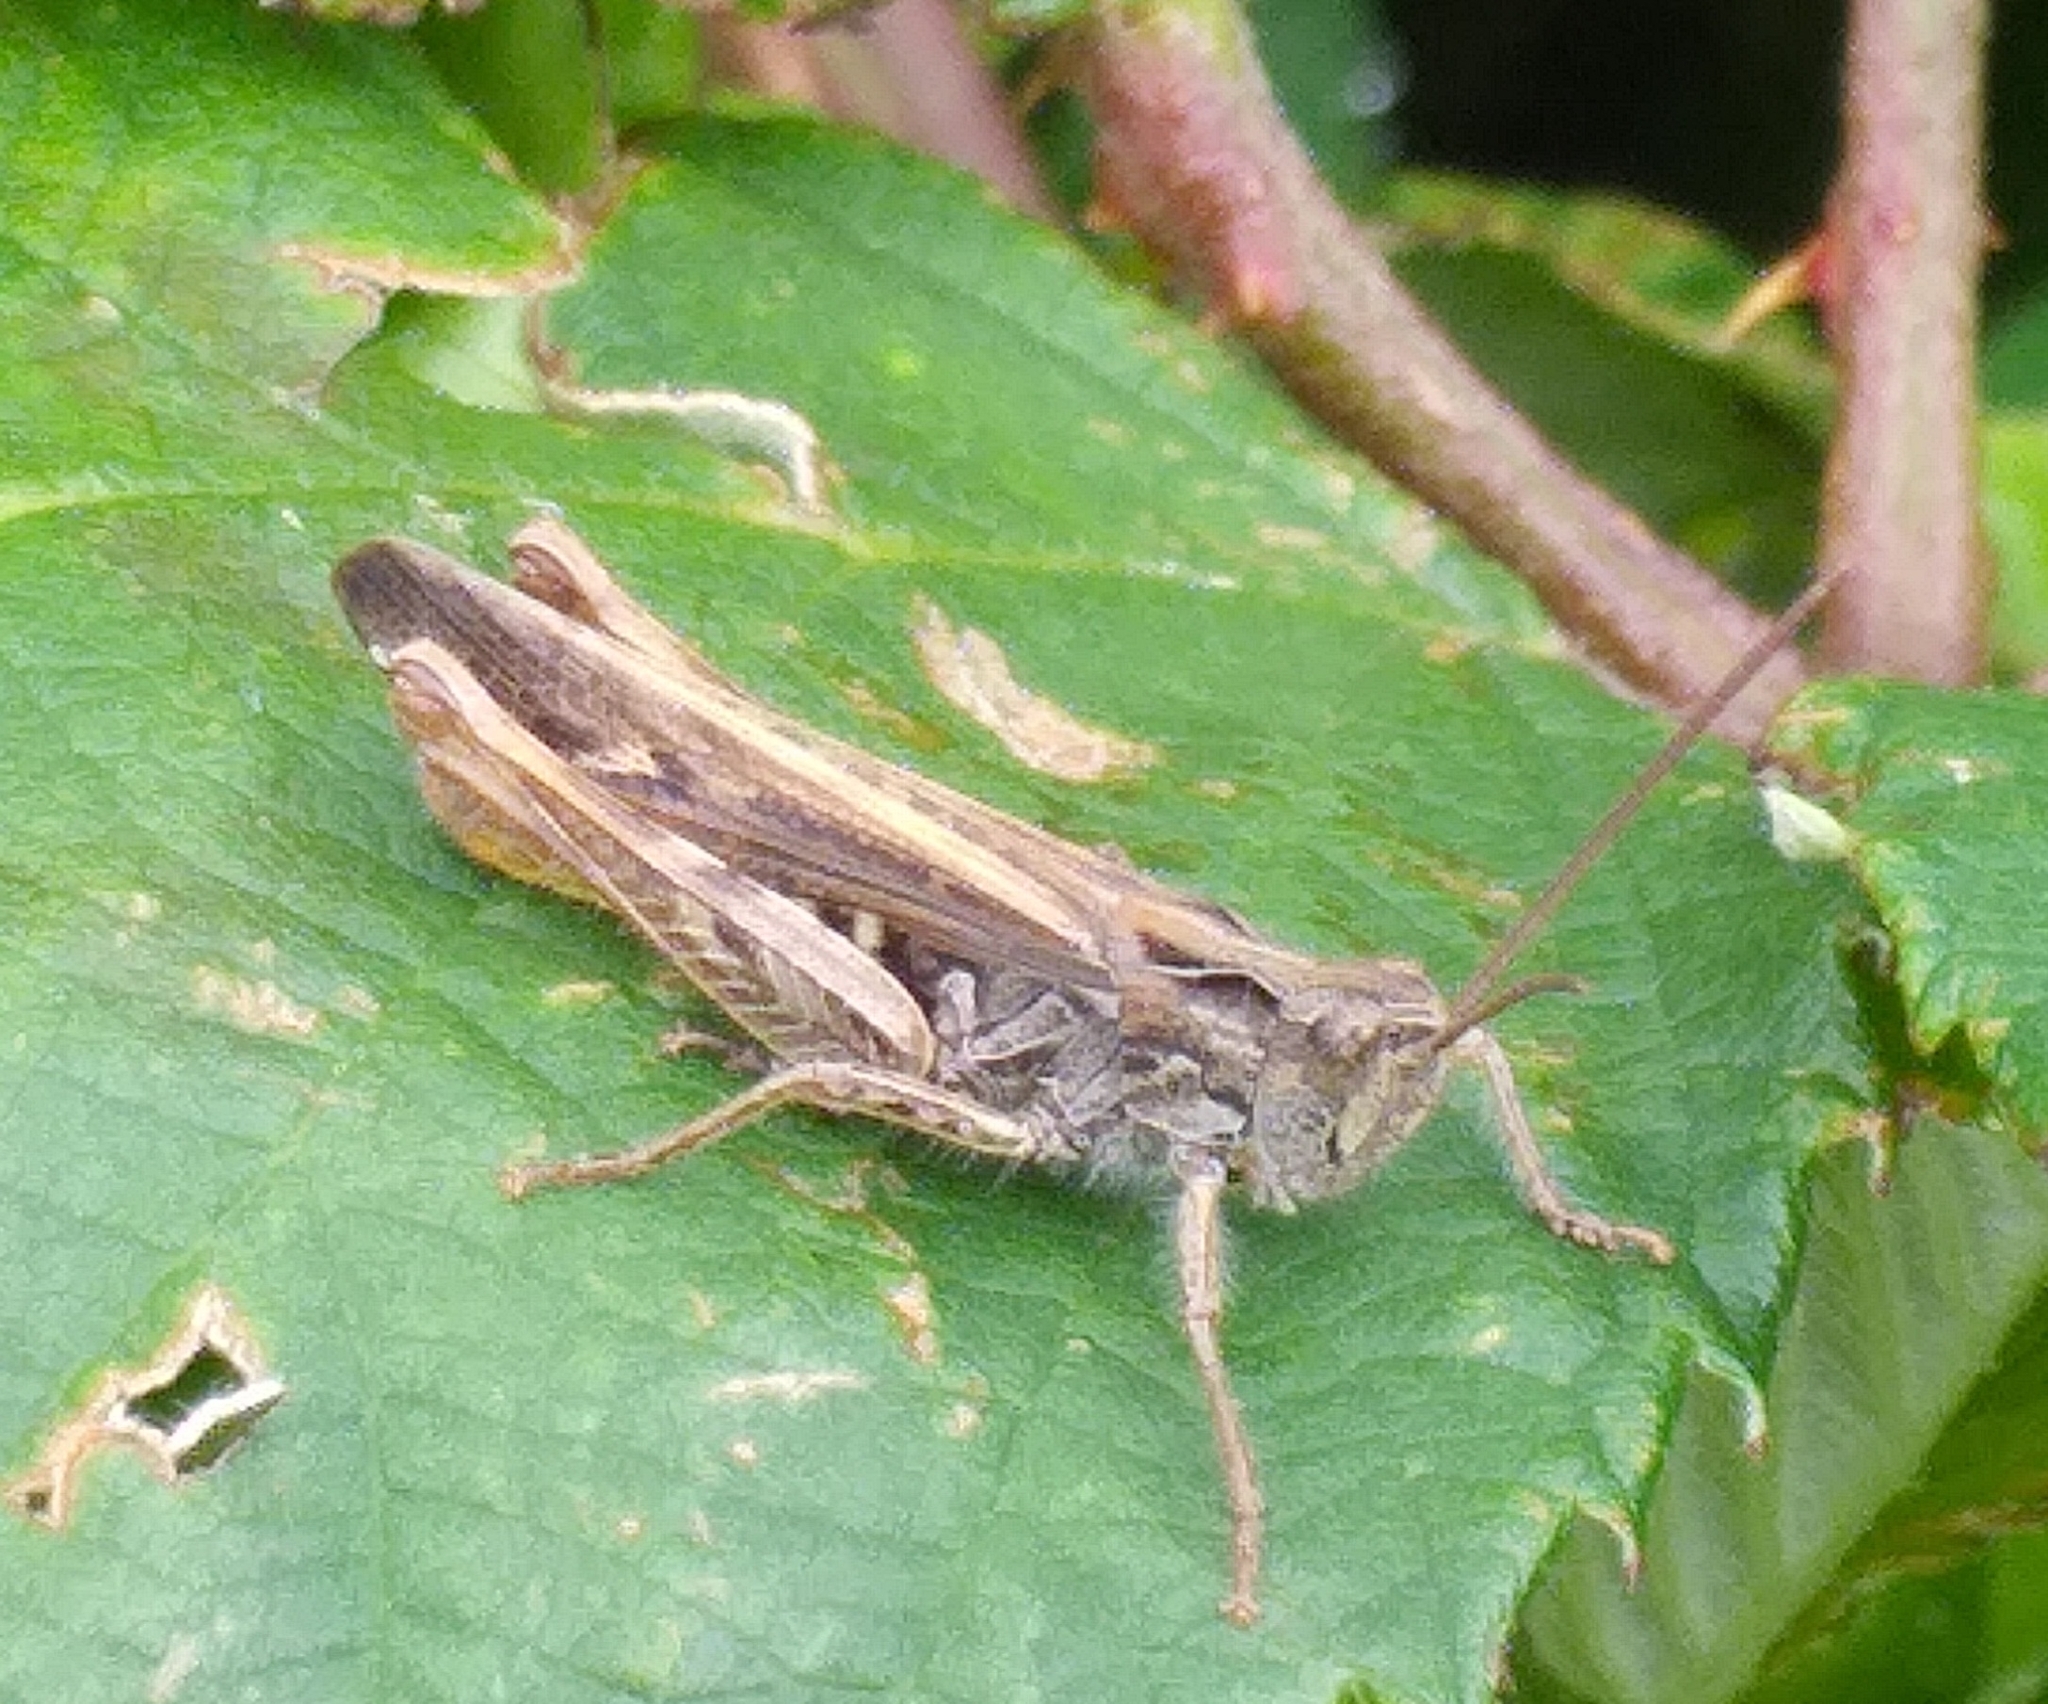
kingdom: Animalia
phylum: Arthropoda
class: Insecta
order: Orthoptera
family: Acrididae
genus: Chorthippus
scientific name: Chorthippus brunneus
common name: Field grasshopper
